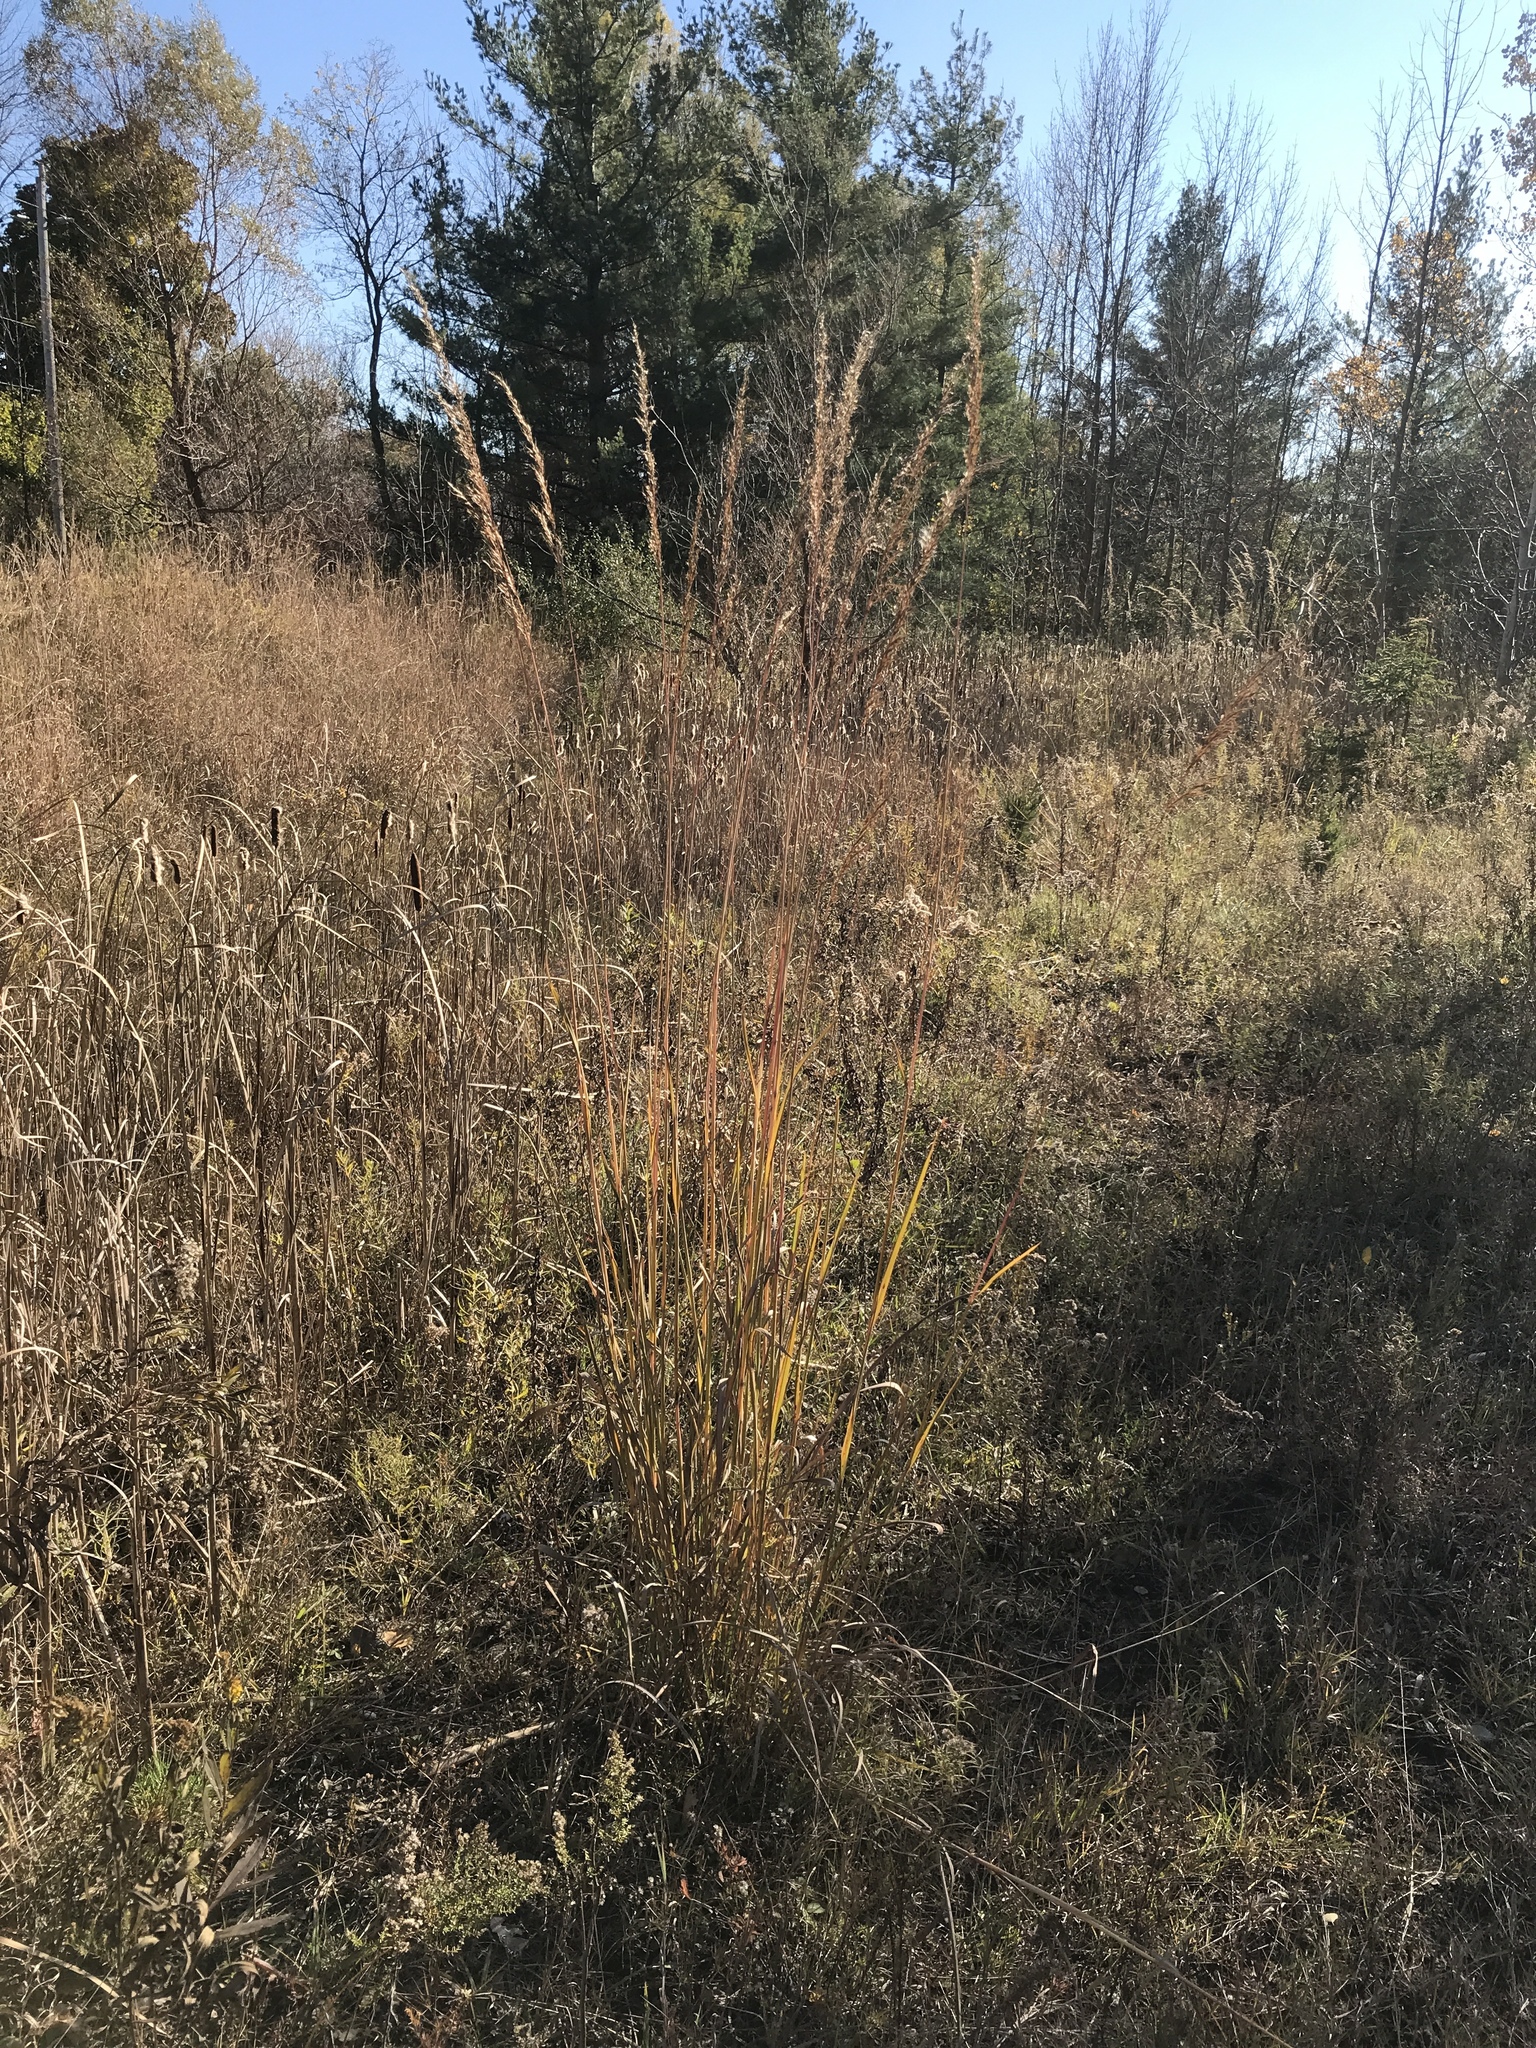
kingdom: Plantae
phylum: Tracheophyta
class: Liliopsida
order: Poales
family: Poaceae
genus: Sorghastrum
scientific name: Sorghastrum nutans
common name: Indian grass
